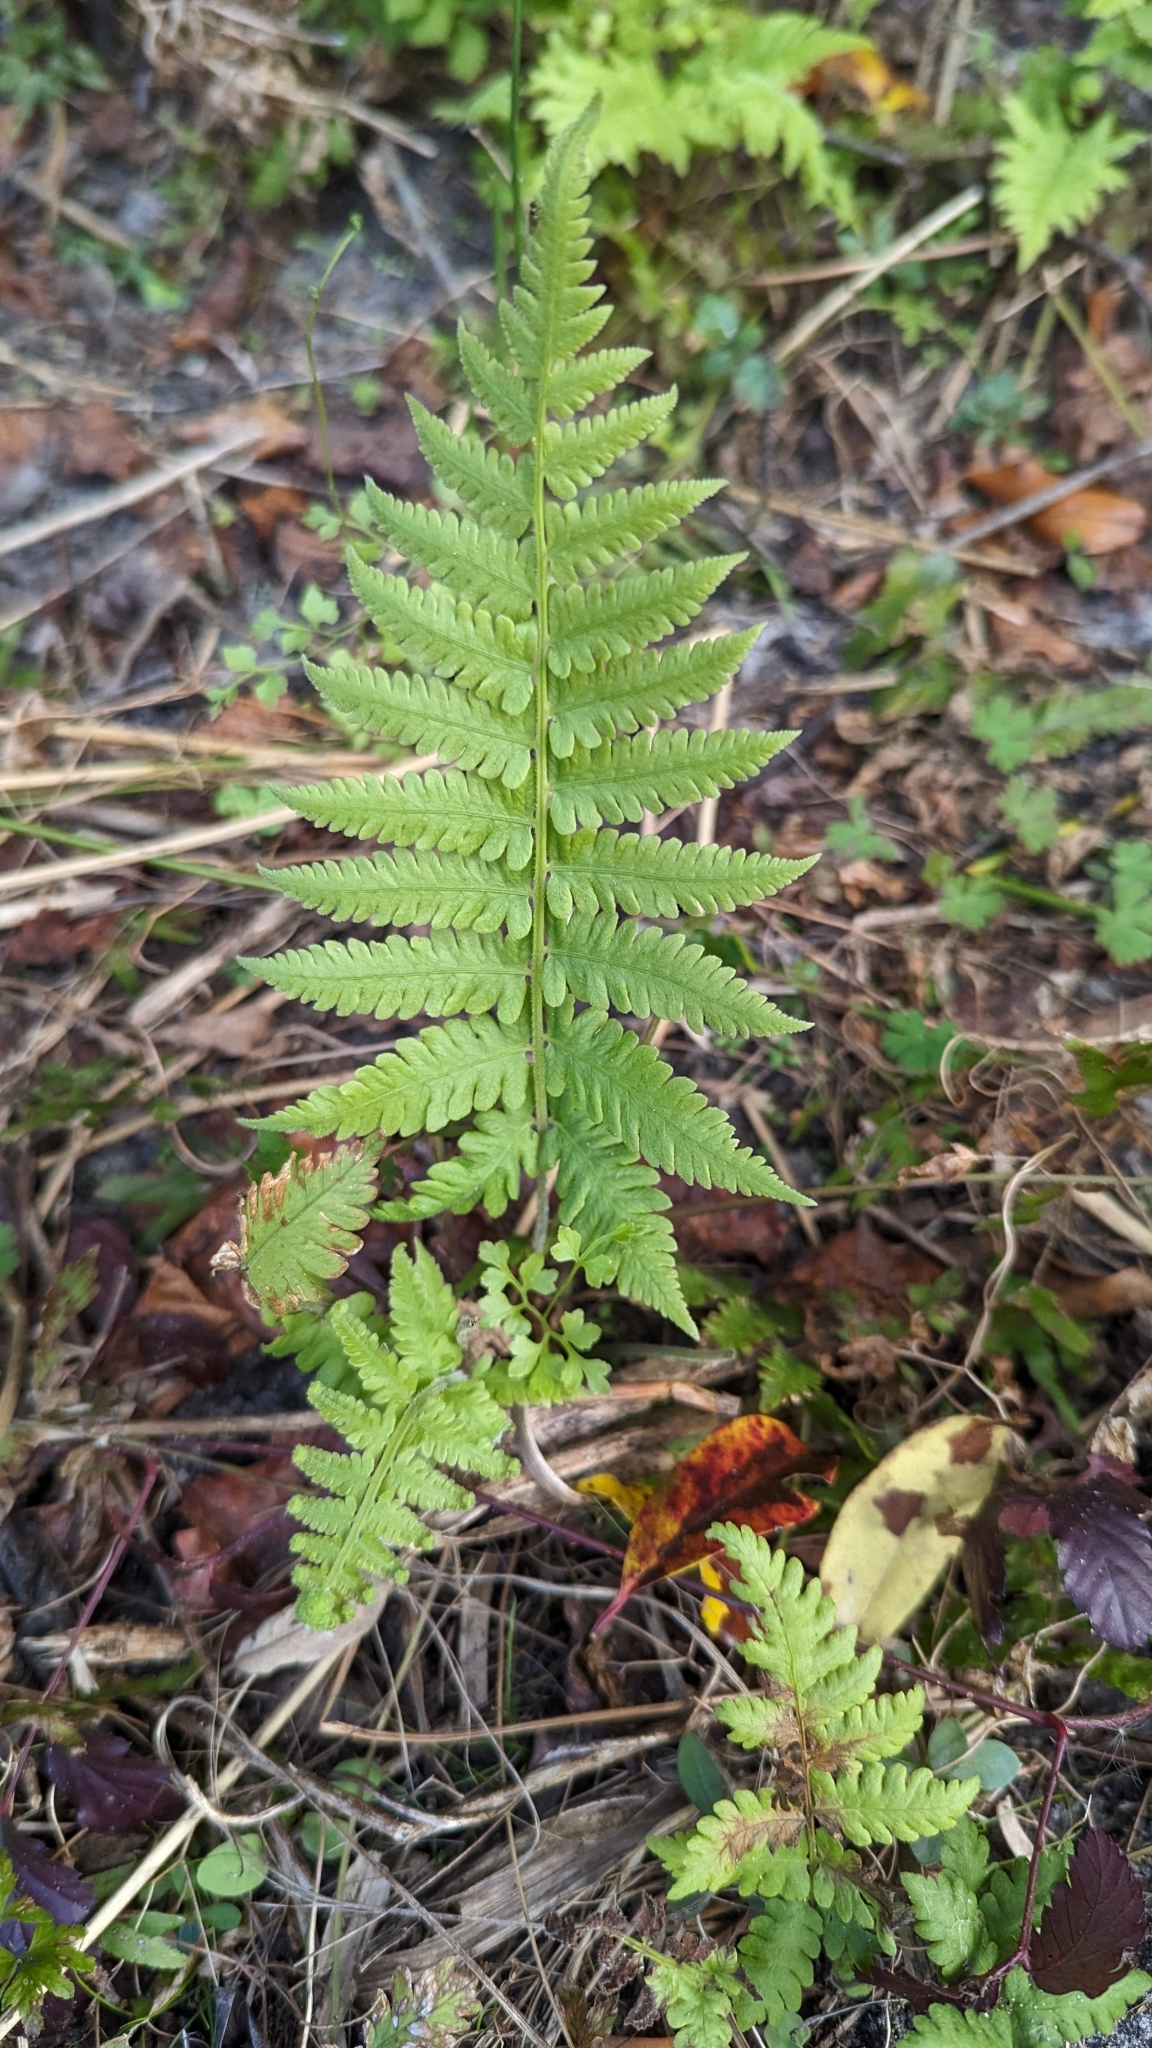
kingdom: Plantae
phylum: Tracheophyta
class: Polypodiopsida
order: Polypodiales
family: Thelypteridaceae
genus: Christella
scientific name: Christella dentata
